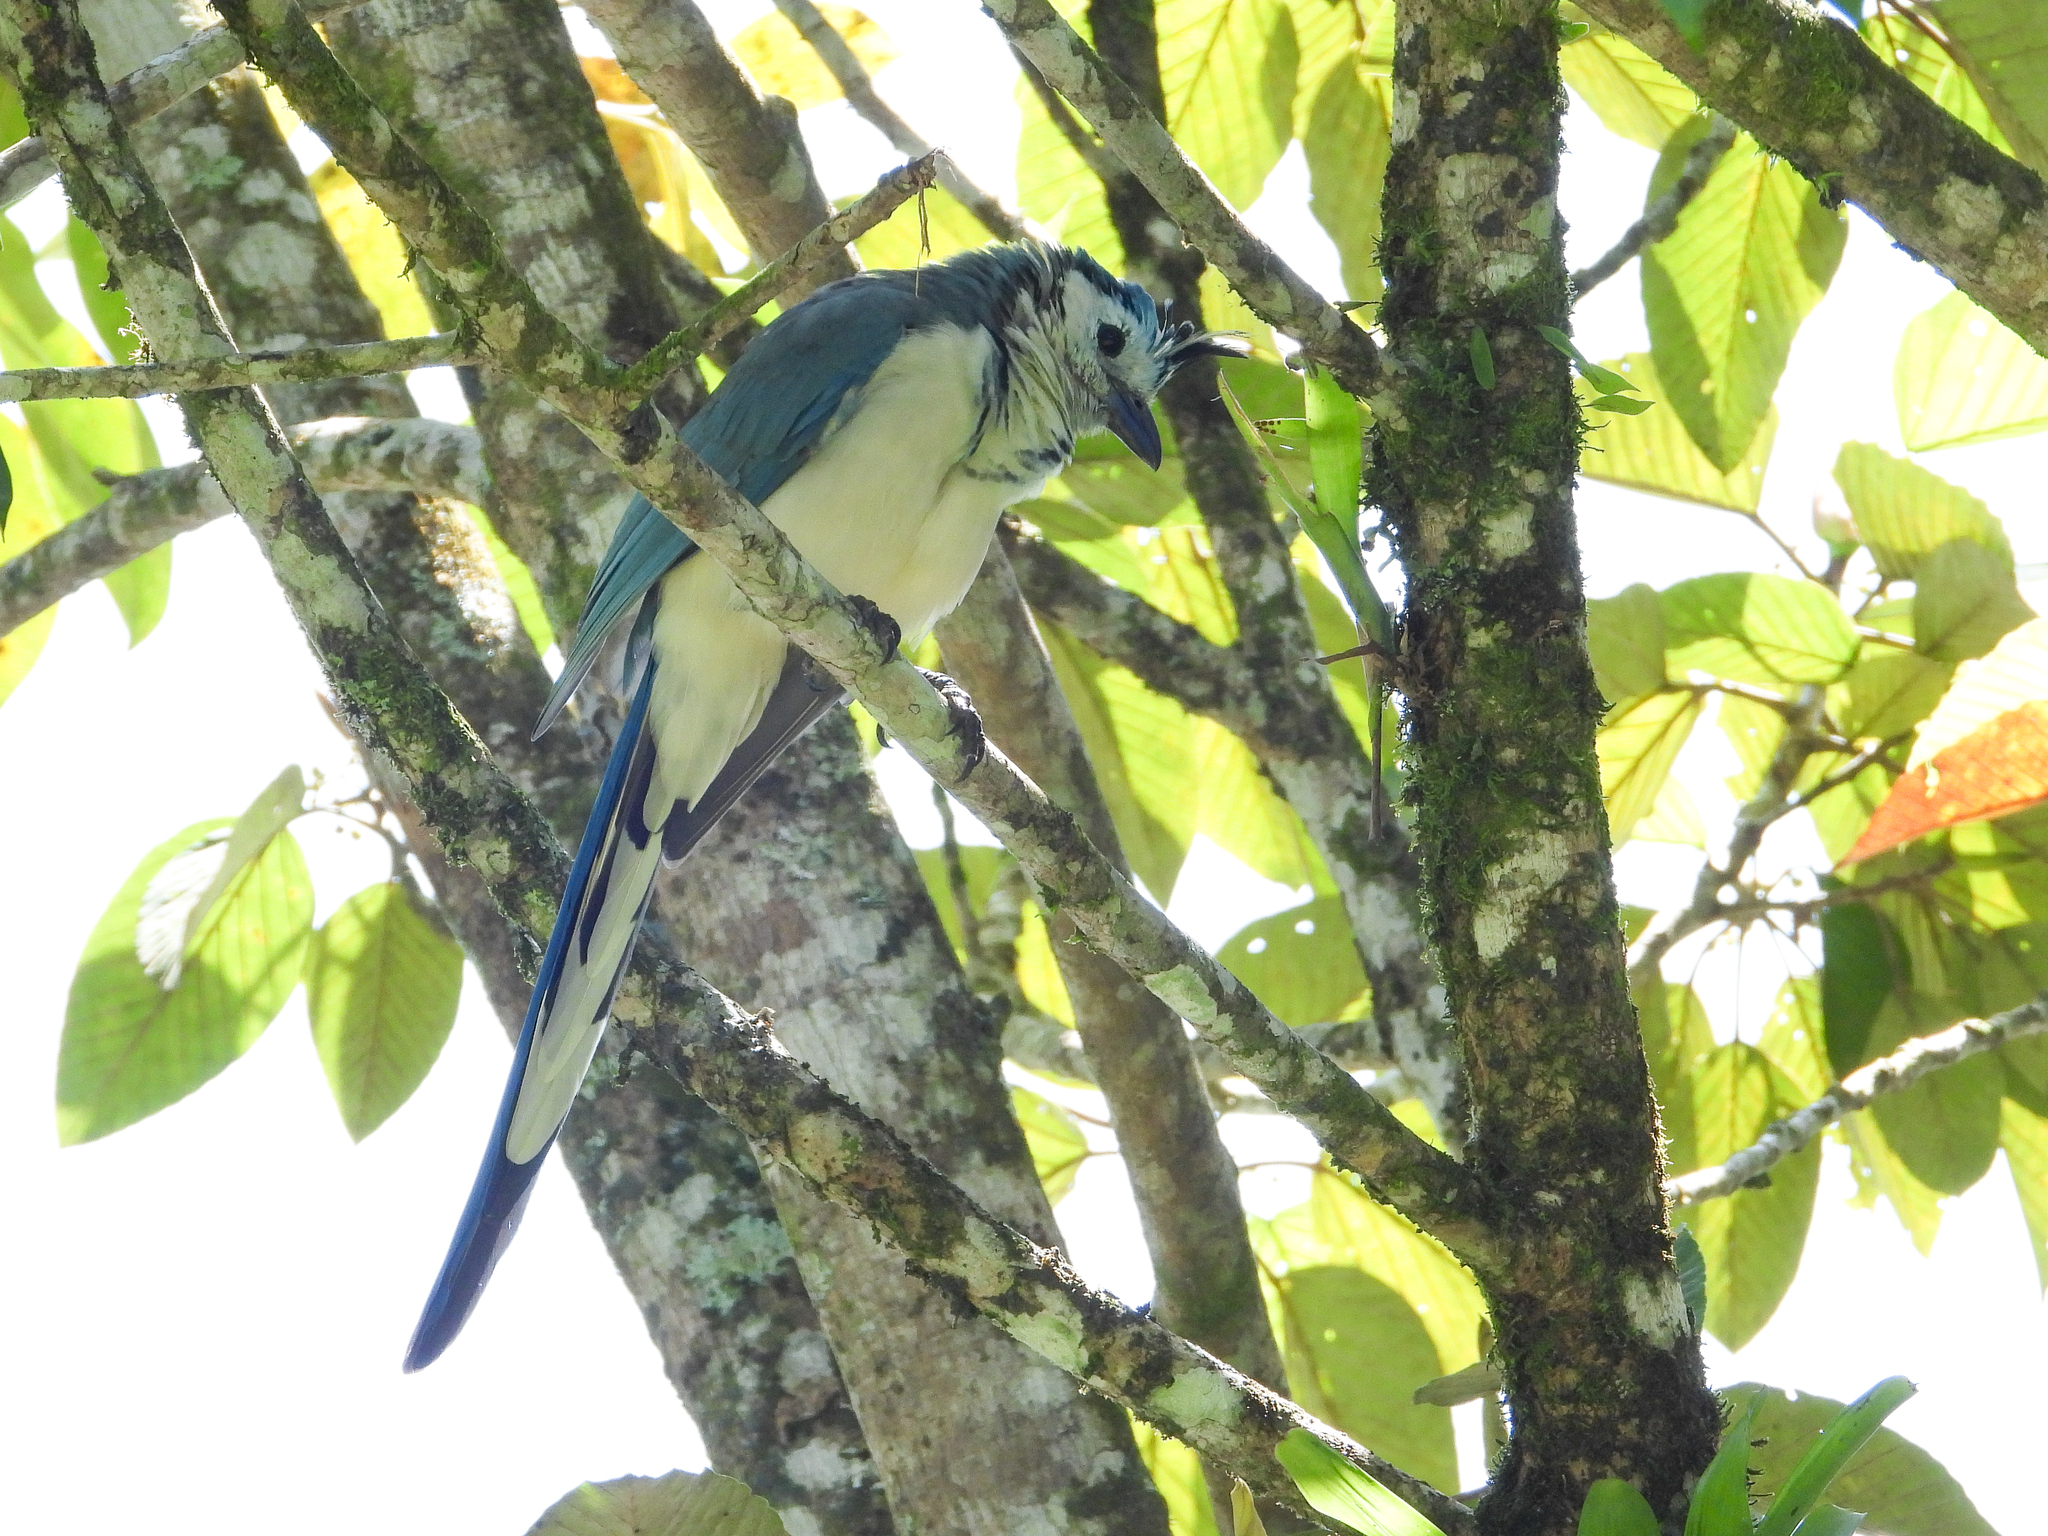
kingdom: Animalia
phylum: Chordata
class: Aves
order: Passeriformes
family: Corvidae
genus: Calocitta
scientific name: Calocitta formosa
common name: White-throated magpie-jay
